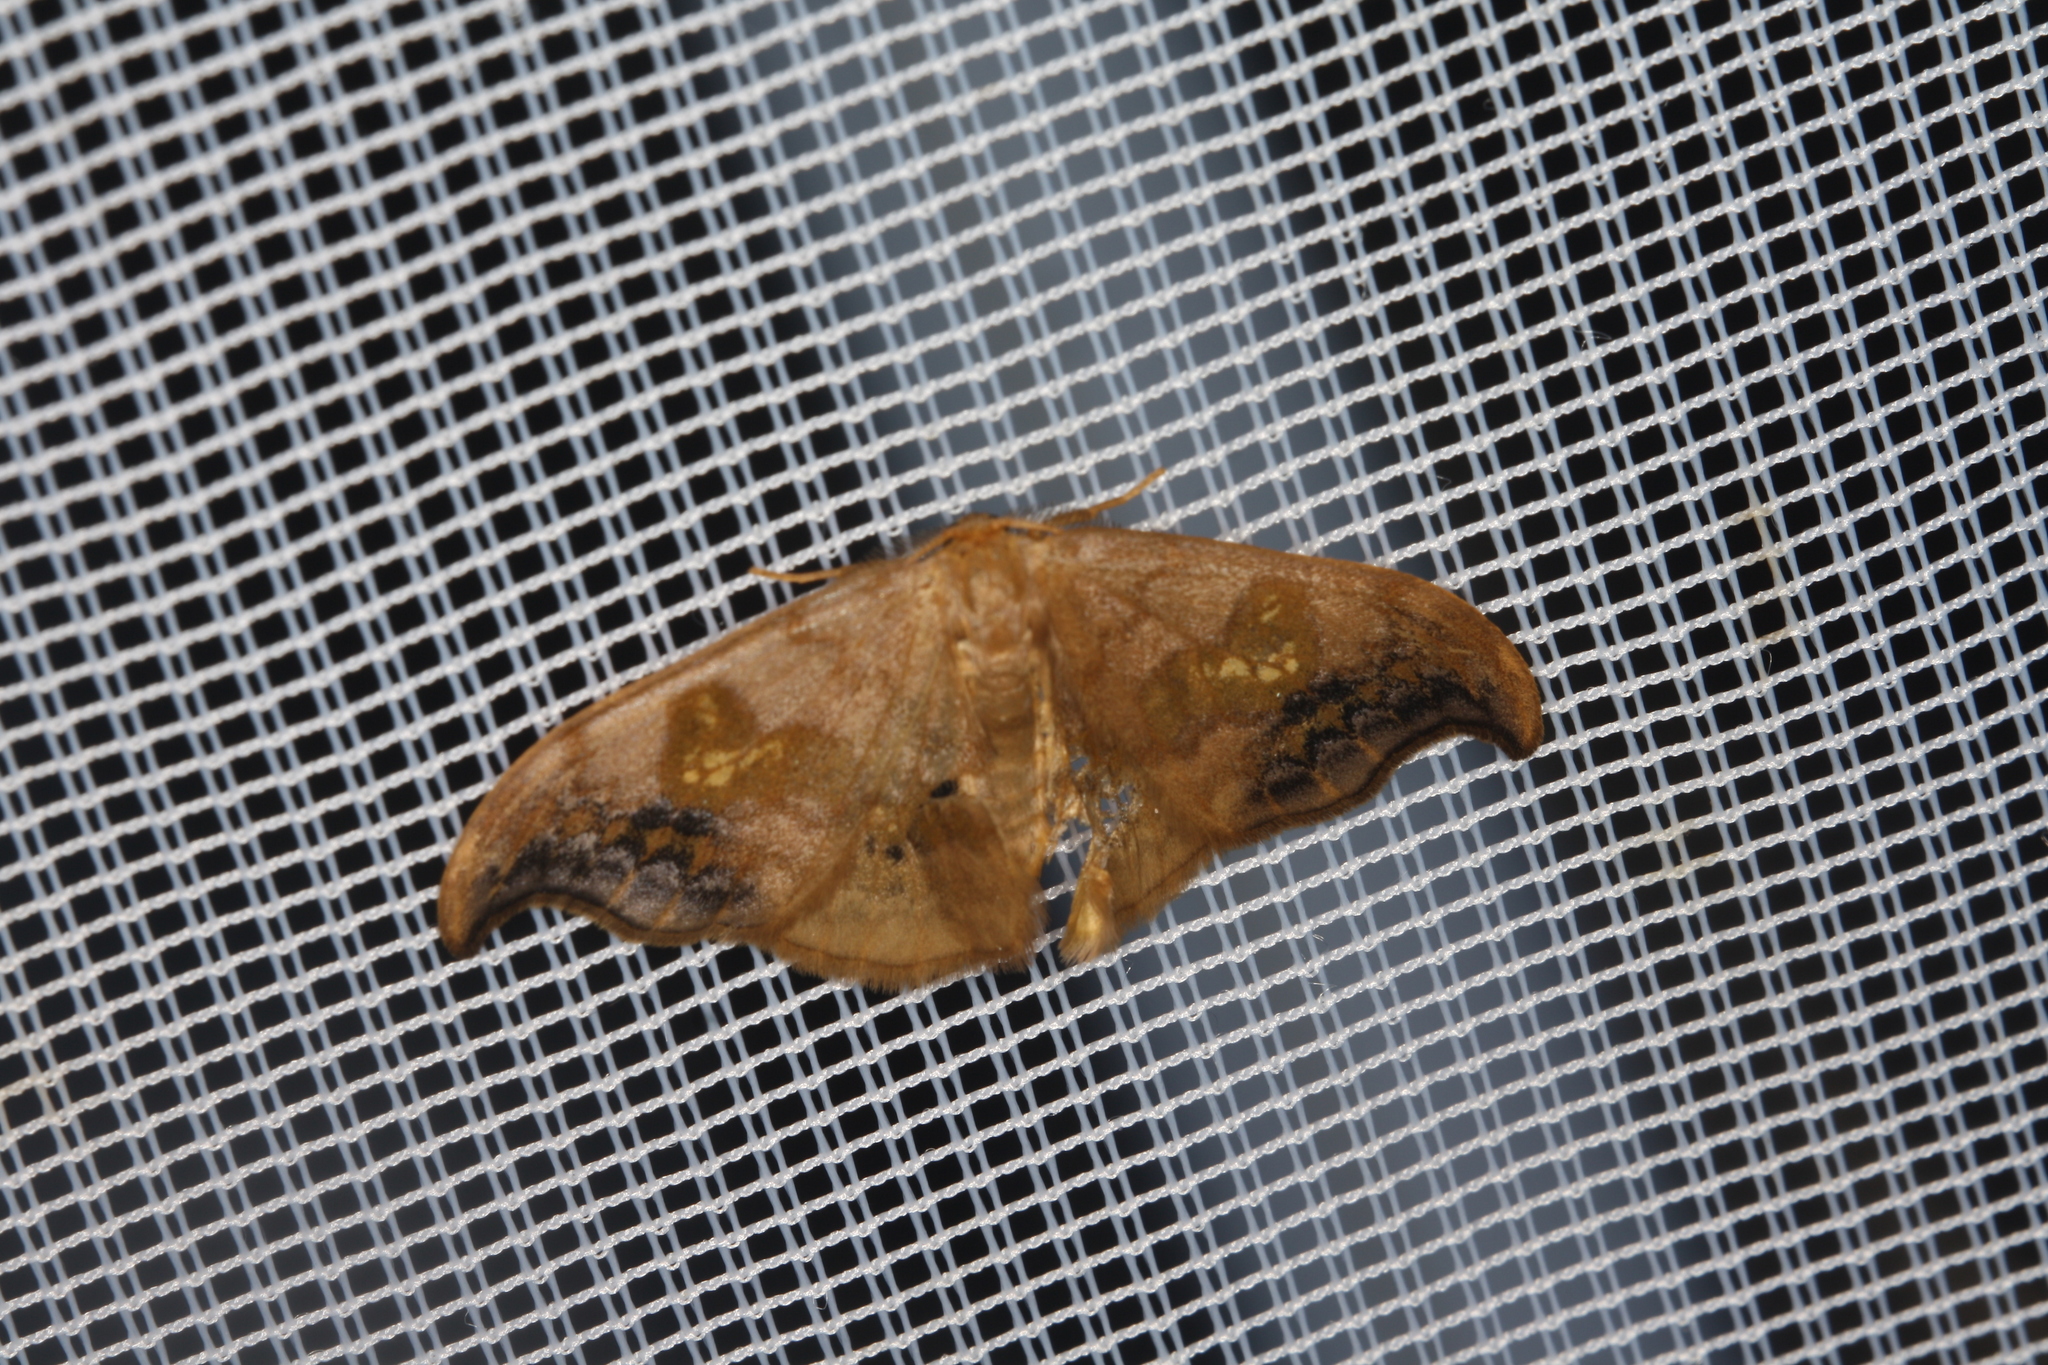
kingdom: Animalia
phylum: Arthropoda
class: Insecta
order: Lepidoptera
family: Drepanidae
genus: Sabra
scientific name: Sabra harpagula
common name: Scarce hook-tip
